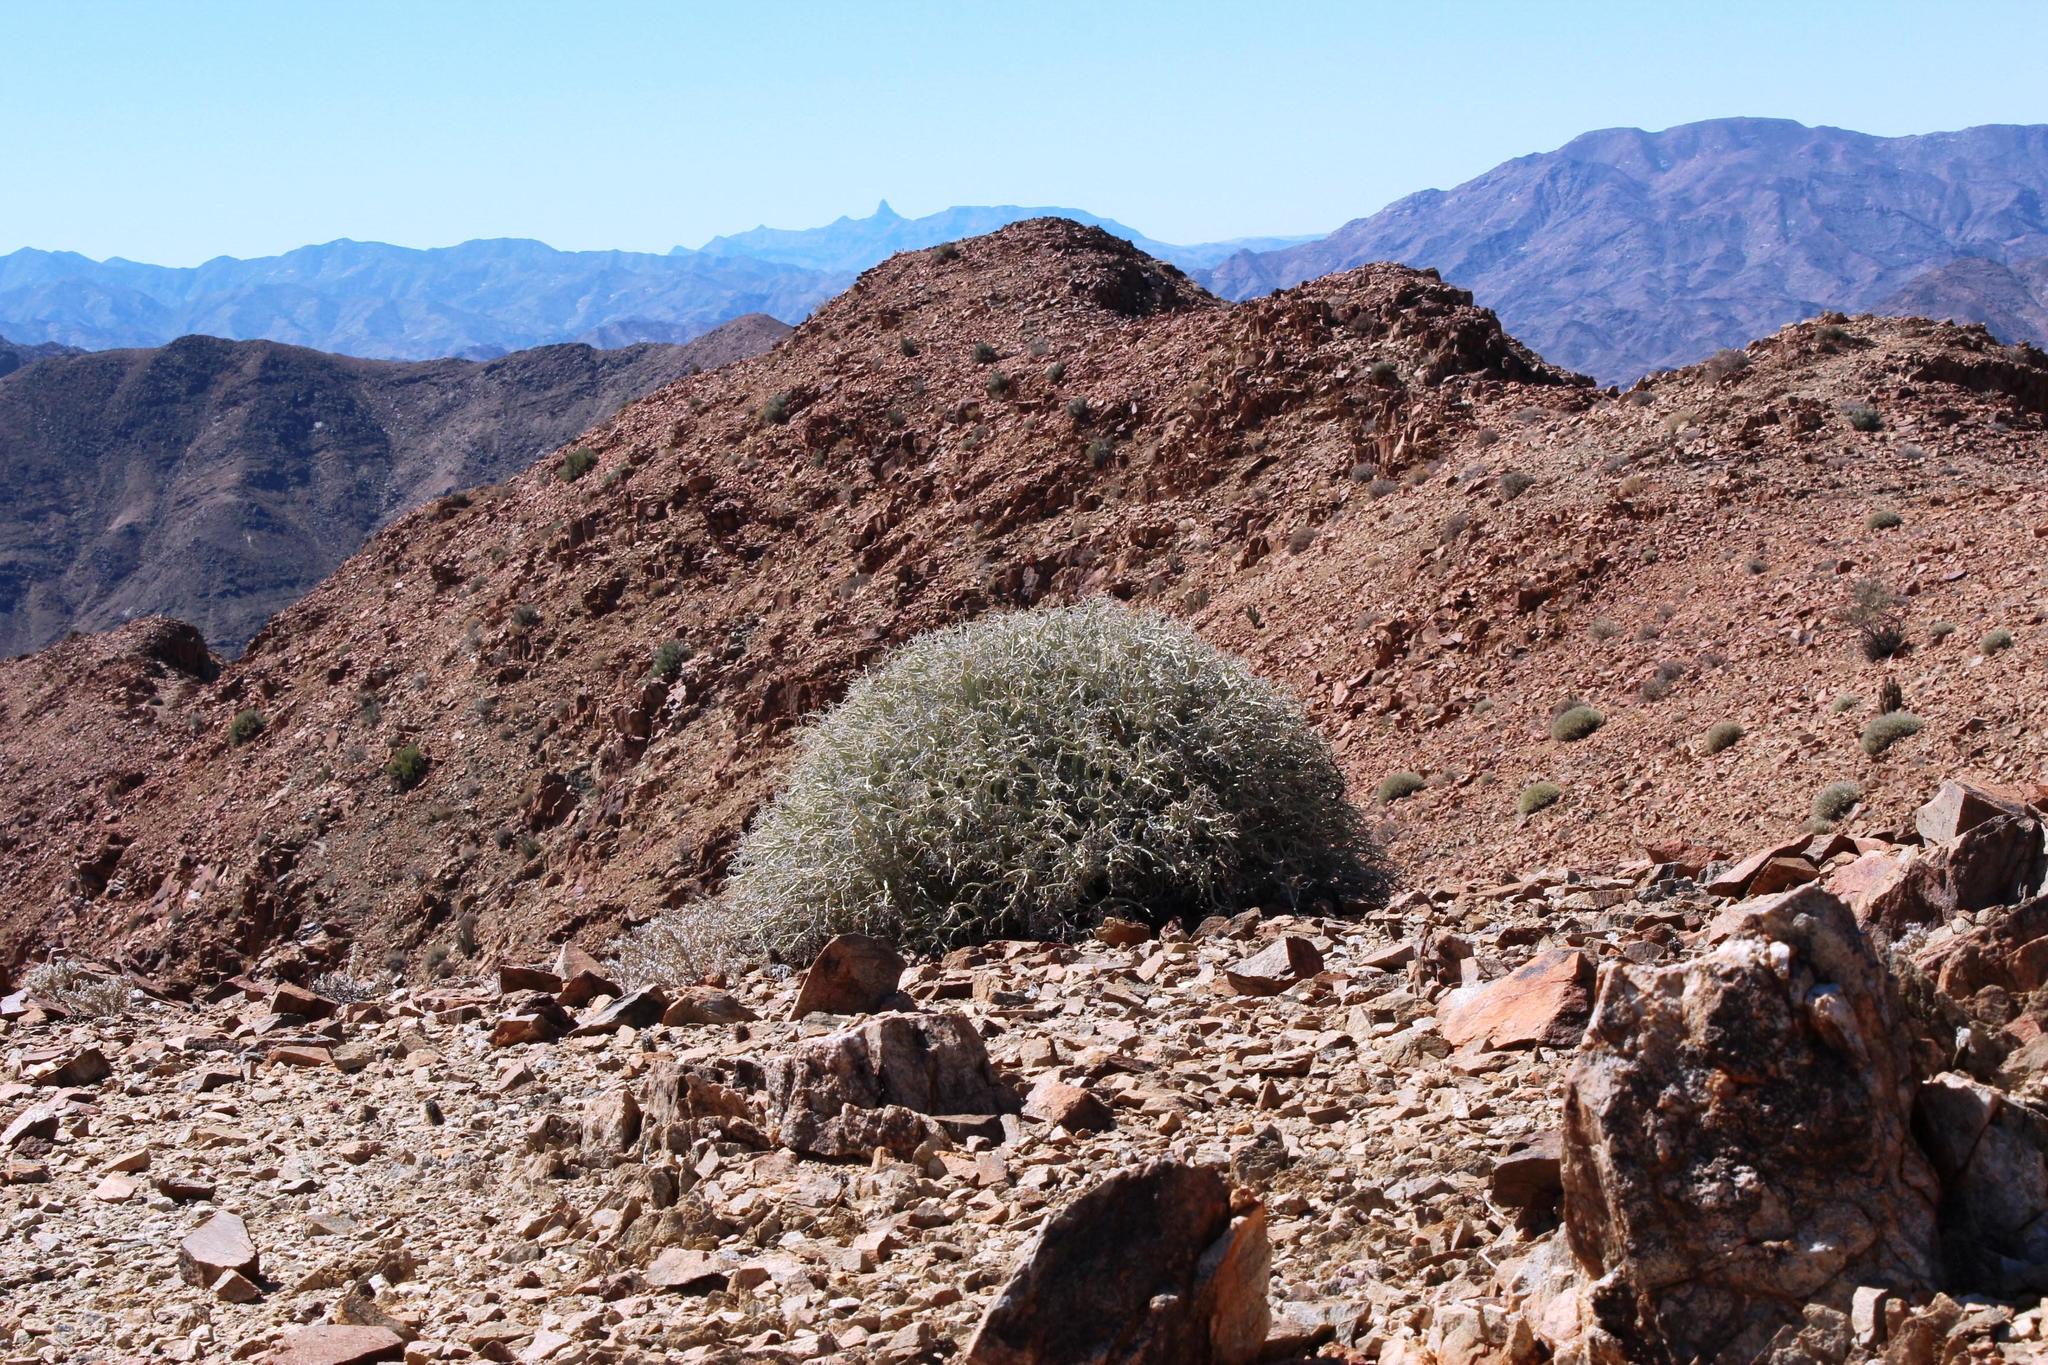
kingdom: Plantae
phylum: Tracheophyta
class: Magnoliopsida
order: Malpighiales
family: Euphorbiaceae
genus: Euphorbia
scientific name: Euphorbia gariepina
